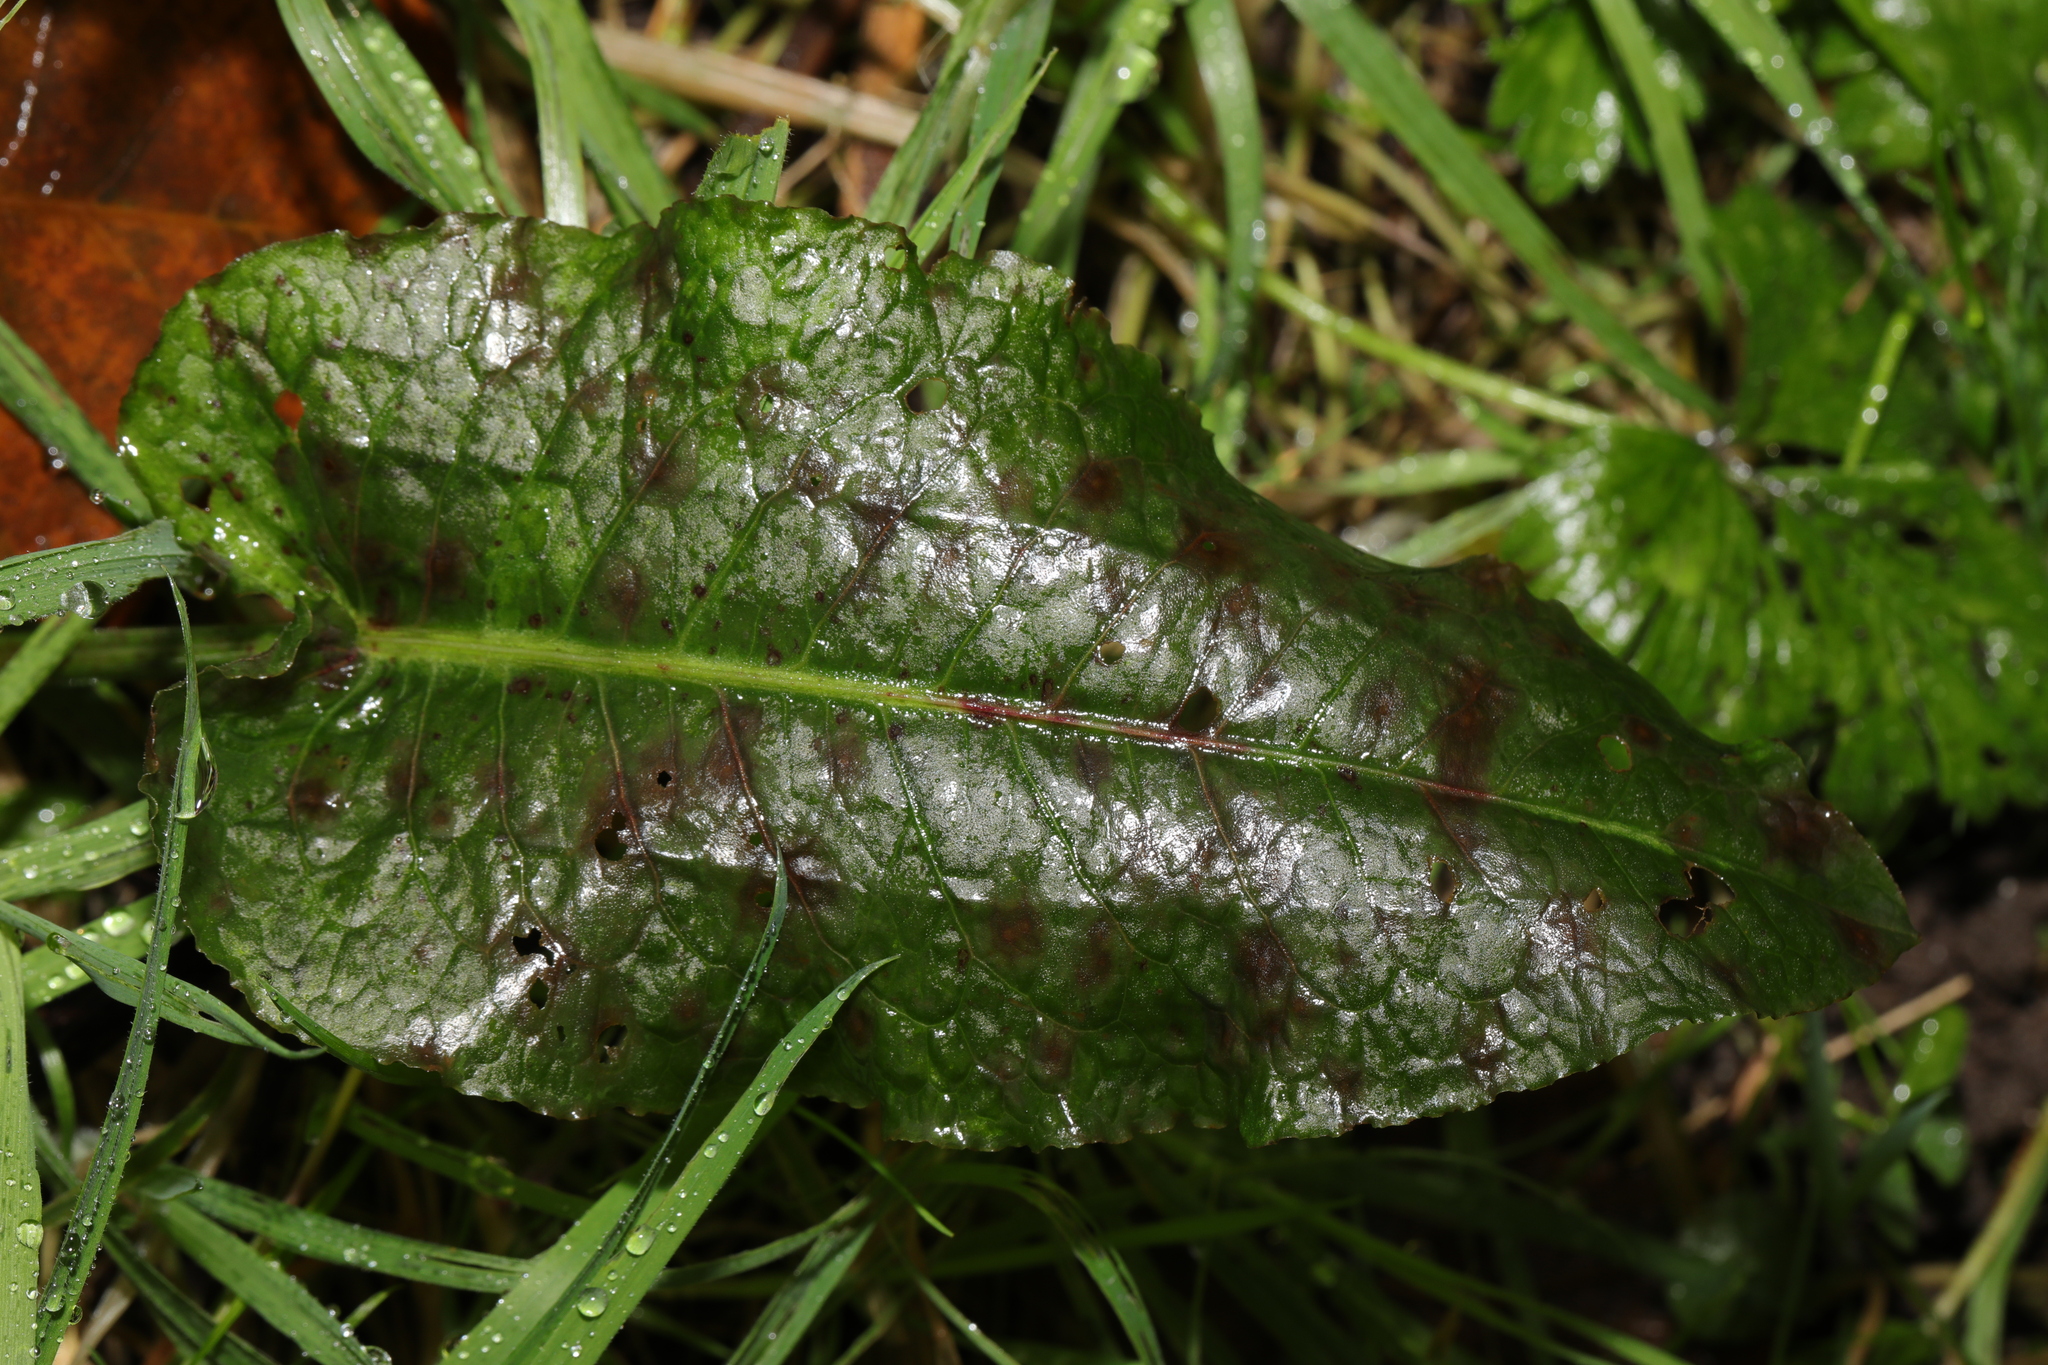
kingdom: Plantae
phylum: Tracheophyta
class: Magnoliopsida
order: Caryophyllales
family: Polygonaceae
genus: Rumex
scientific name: Rumex obtusifolius
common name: Bitter dock
